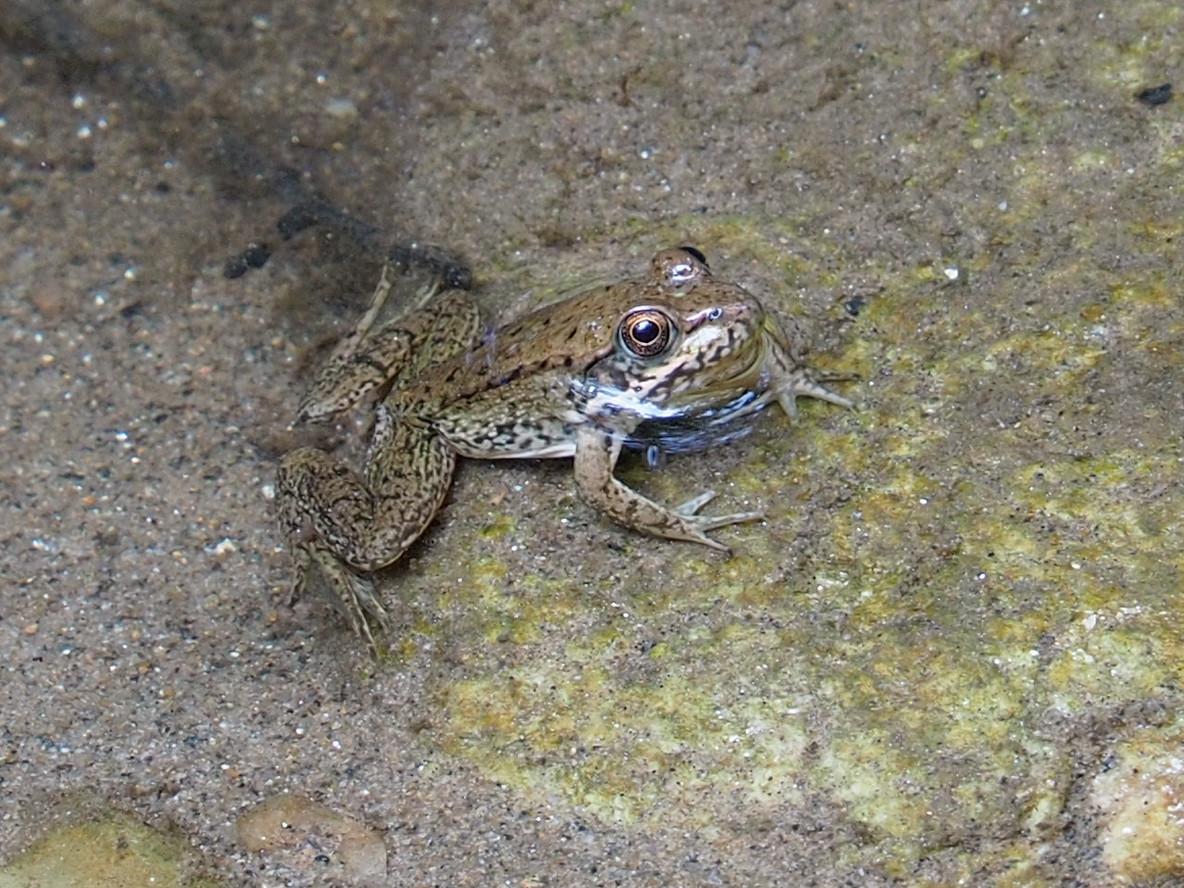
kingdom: Animalia
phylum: Chordata
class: Amphibia
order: Anura
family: Ranidae
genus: Lithobates
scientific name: Lithobates clamitans
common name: Green frog
